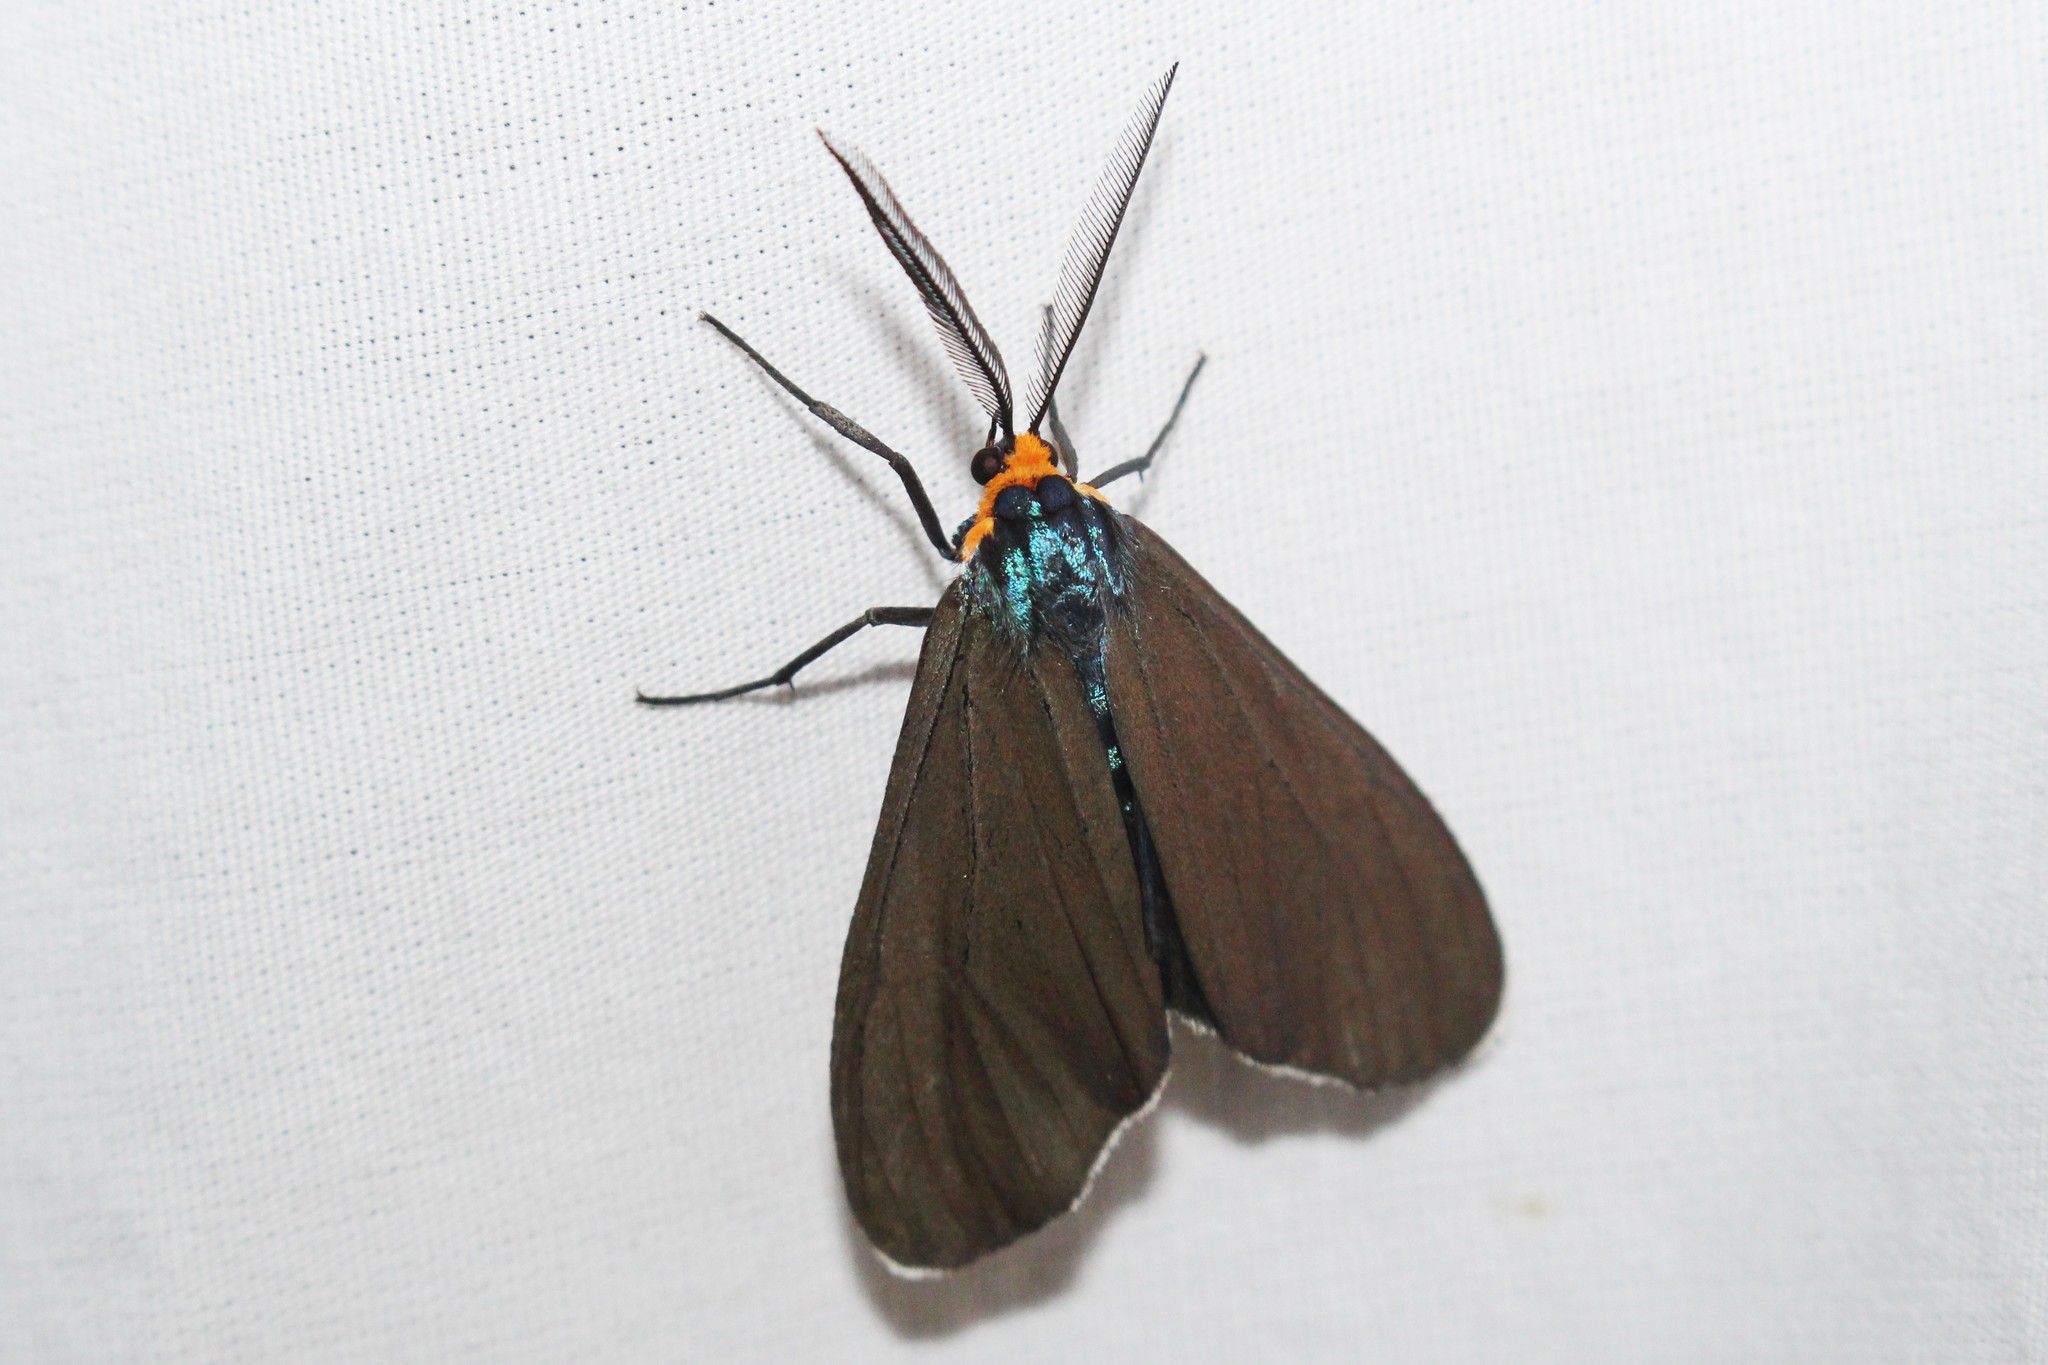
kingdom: Animalia
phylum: Arthropoda
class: Insecta
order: Lepidoptera
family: Erebidae
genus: Ctenucha
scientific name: Ctenucha virginica
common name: Virginia ctenucha moth
